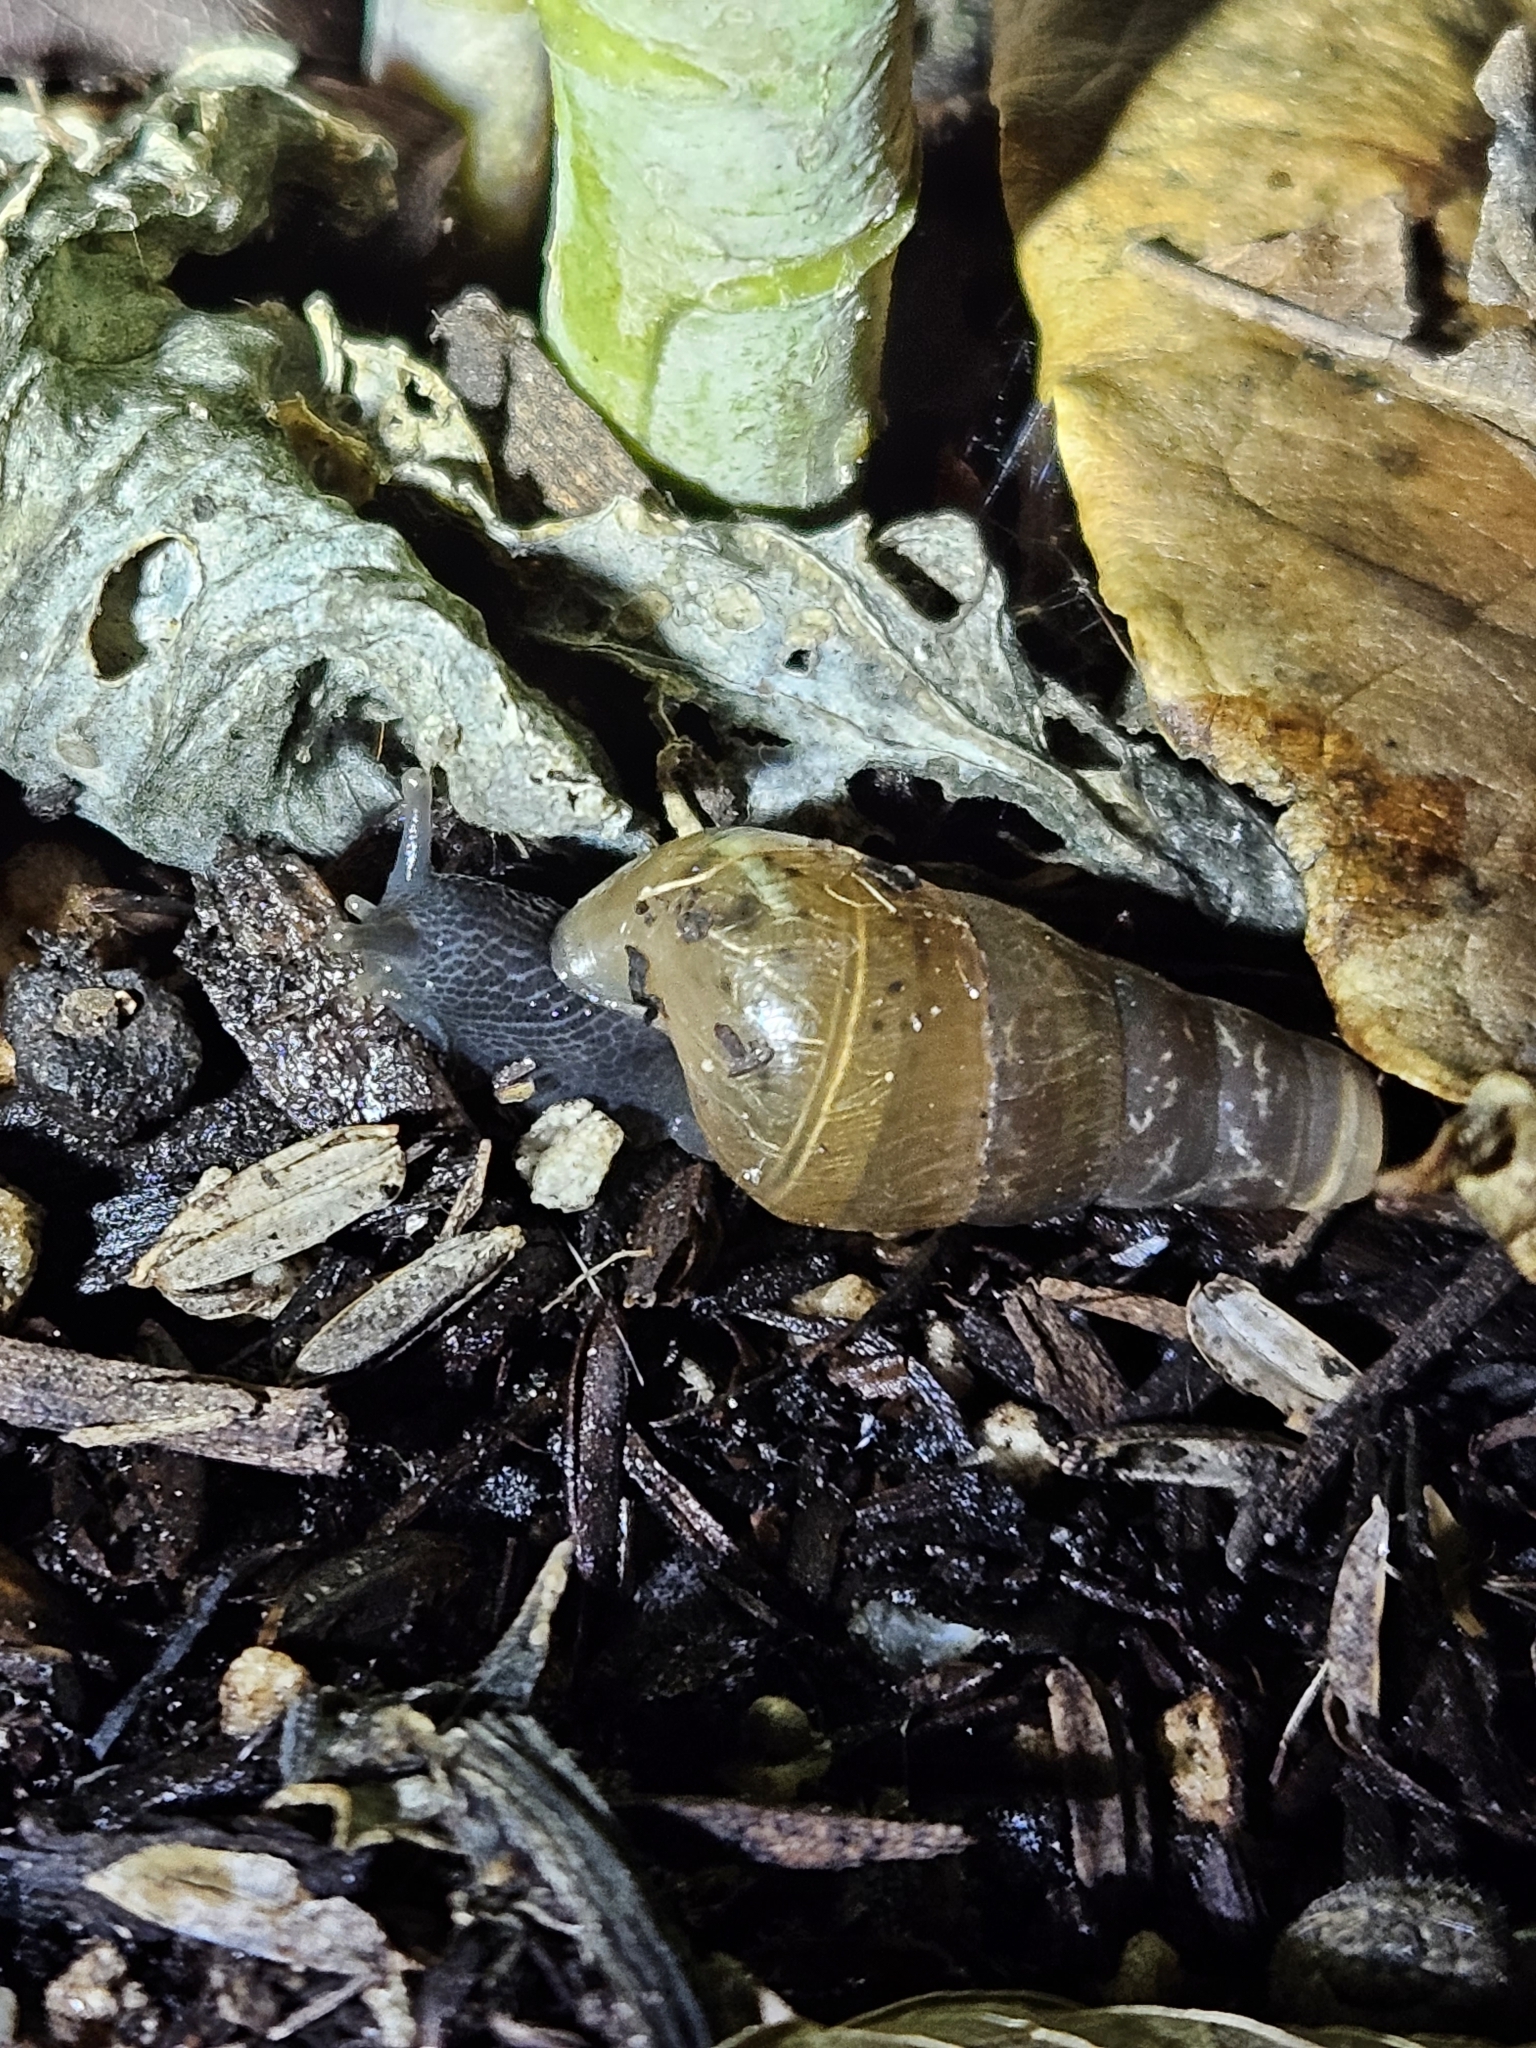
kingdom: Animalia
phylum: Mollusca
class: Gastropoda
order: Stylommatophora
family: Achatinidae
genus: Rumina
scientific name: Rumina decollata
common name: Decollate snail
